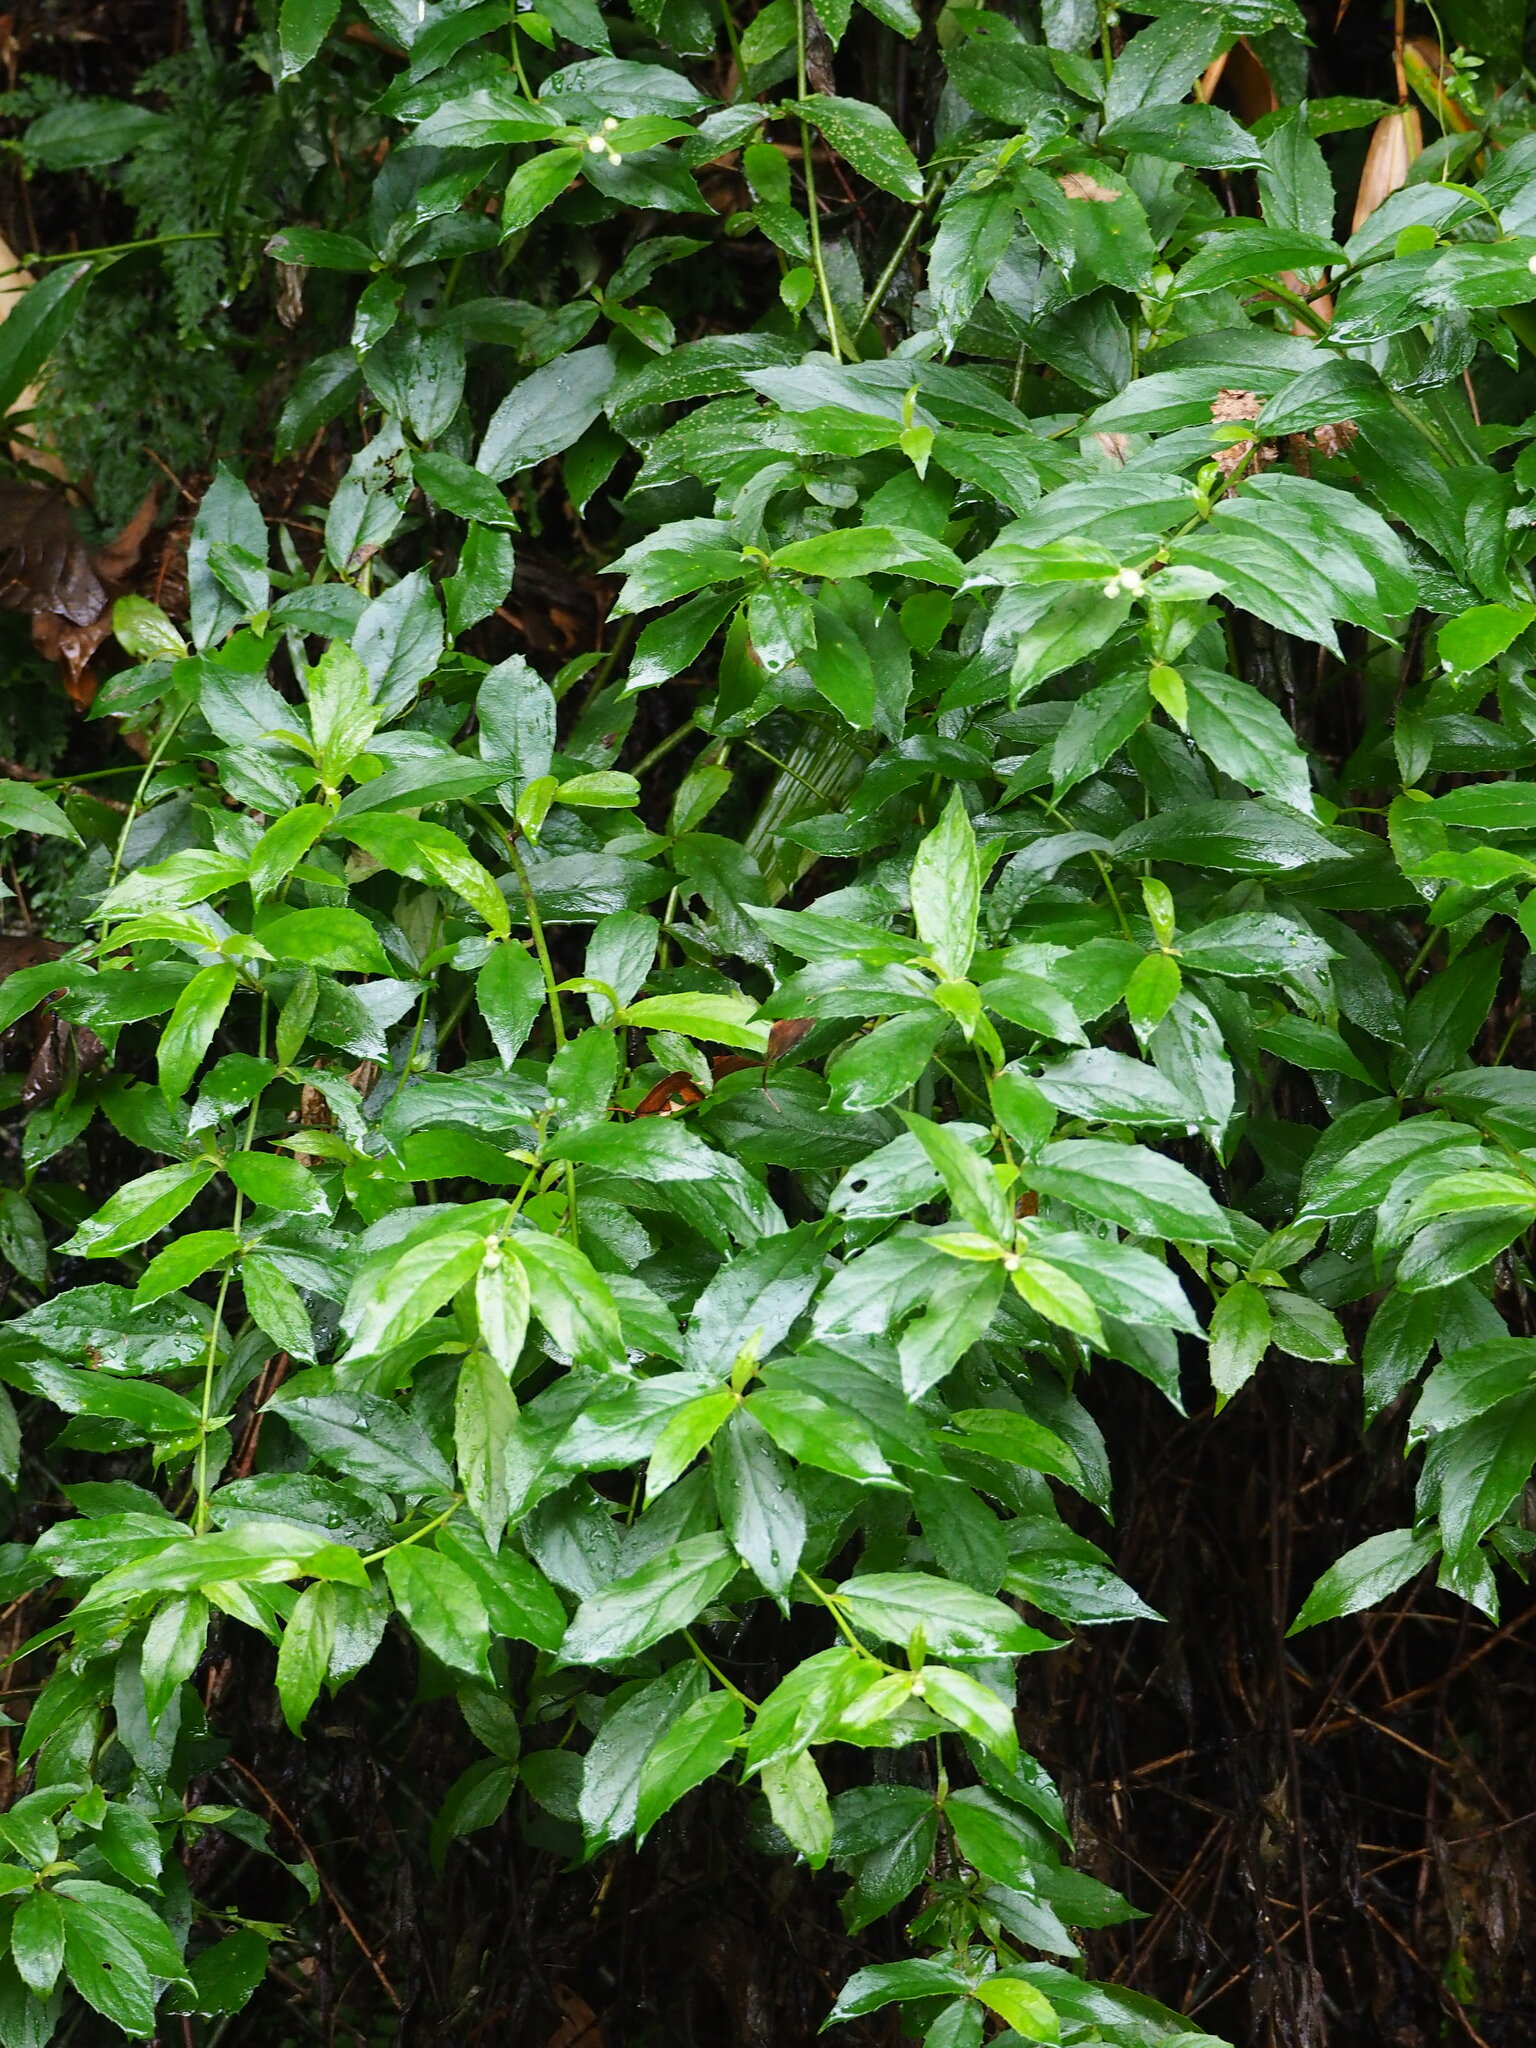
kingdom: Plantae
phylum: Tracheophyta
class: Magnoliopsida
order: Asterales
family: Asteraceae
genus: Blumea
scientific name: Blumea megacephala
